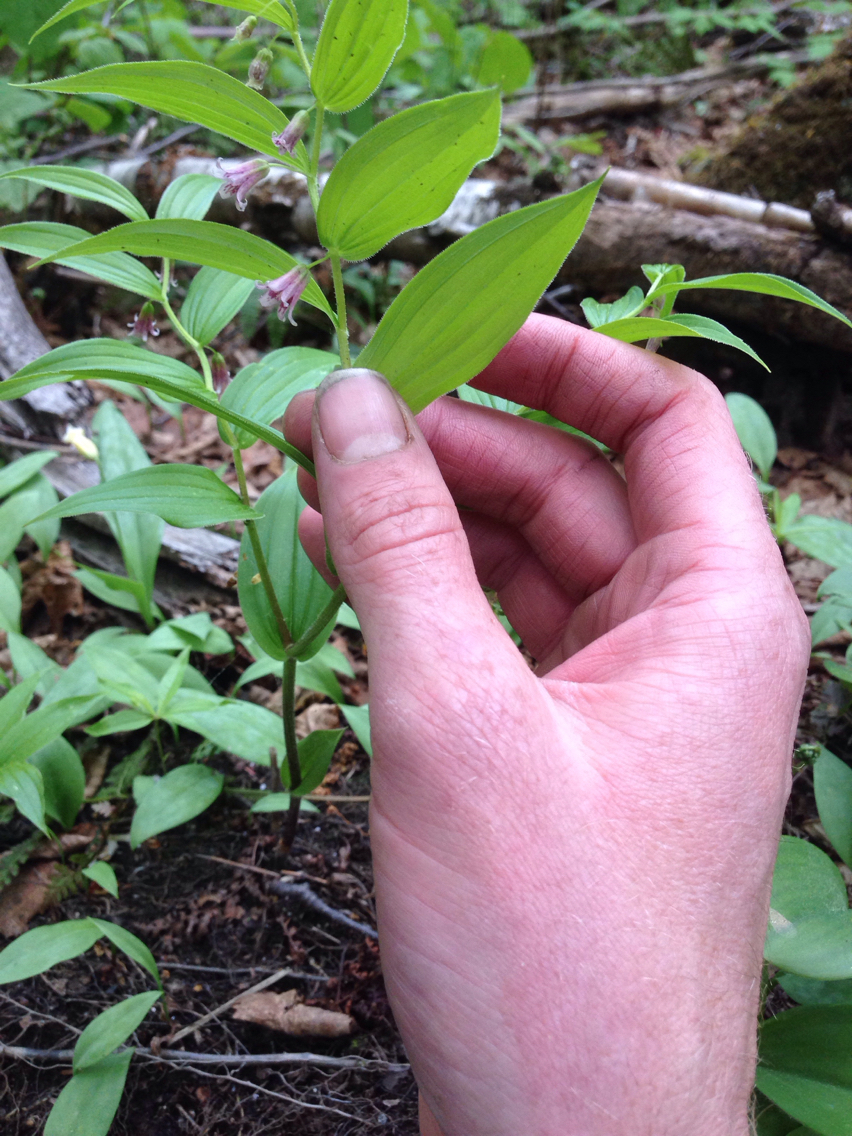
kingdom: Plantae
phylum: Tracheophyta
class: Liliopsida
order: Liliales
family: Liliaceae
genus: Streptopus
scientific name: Streptopus lanceolatus
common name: Rose mandarin
